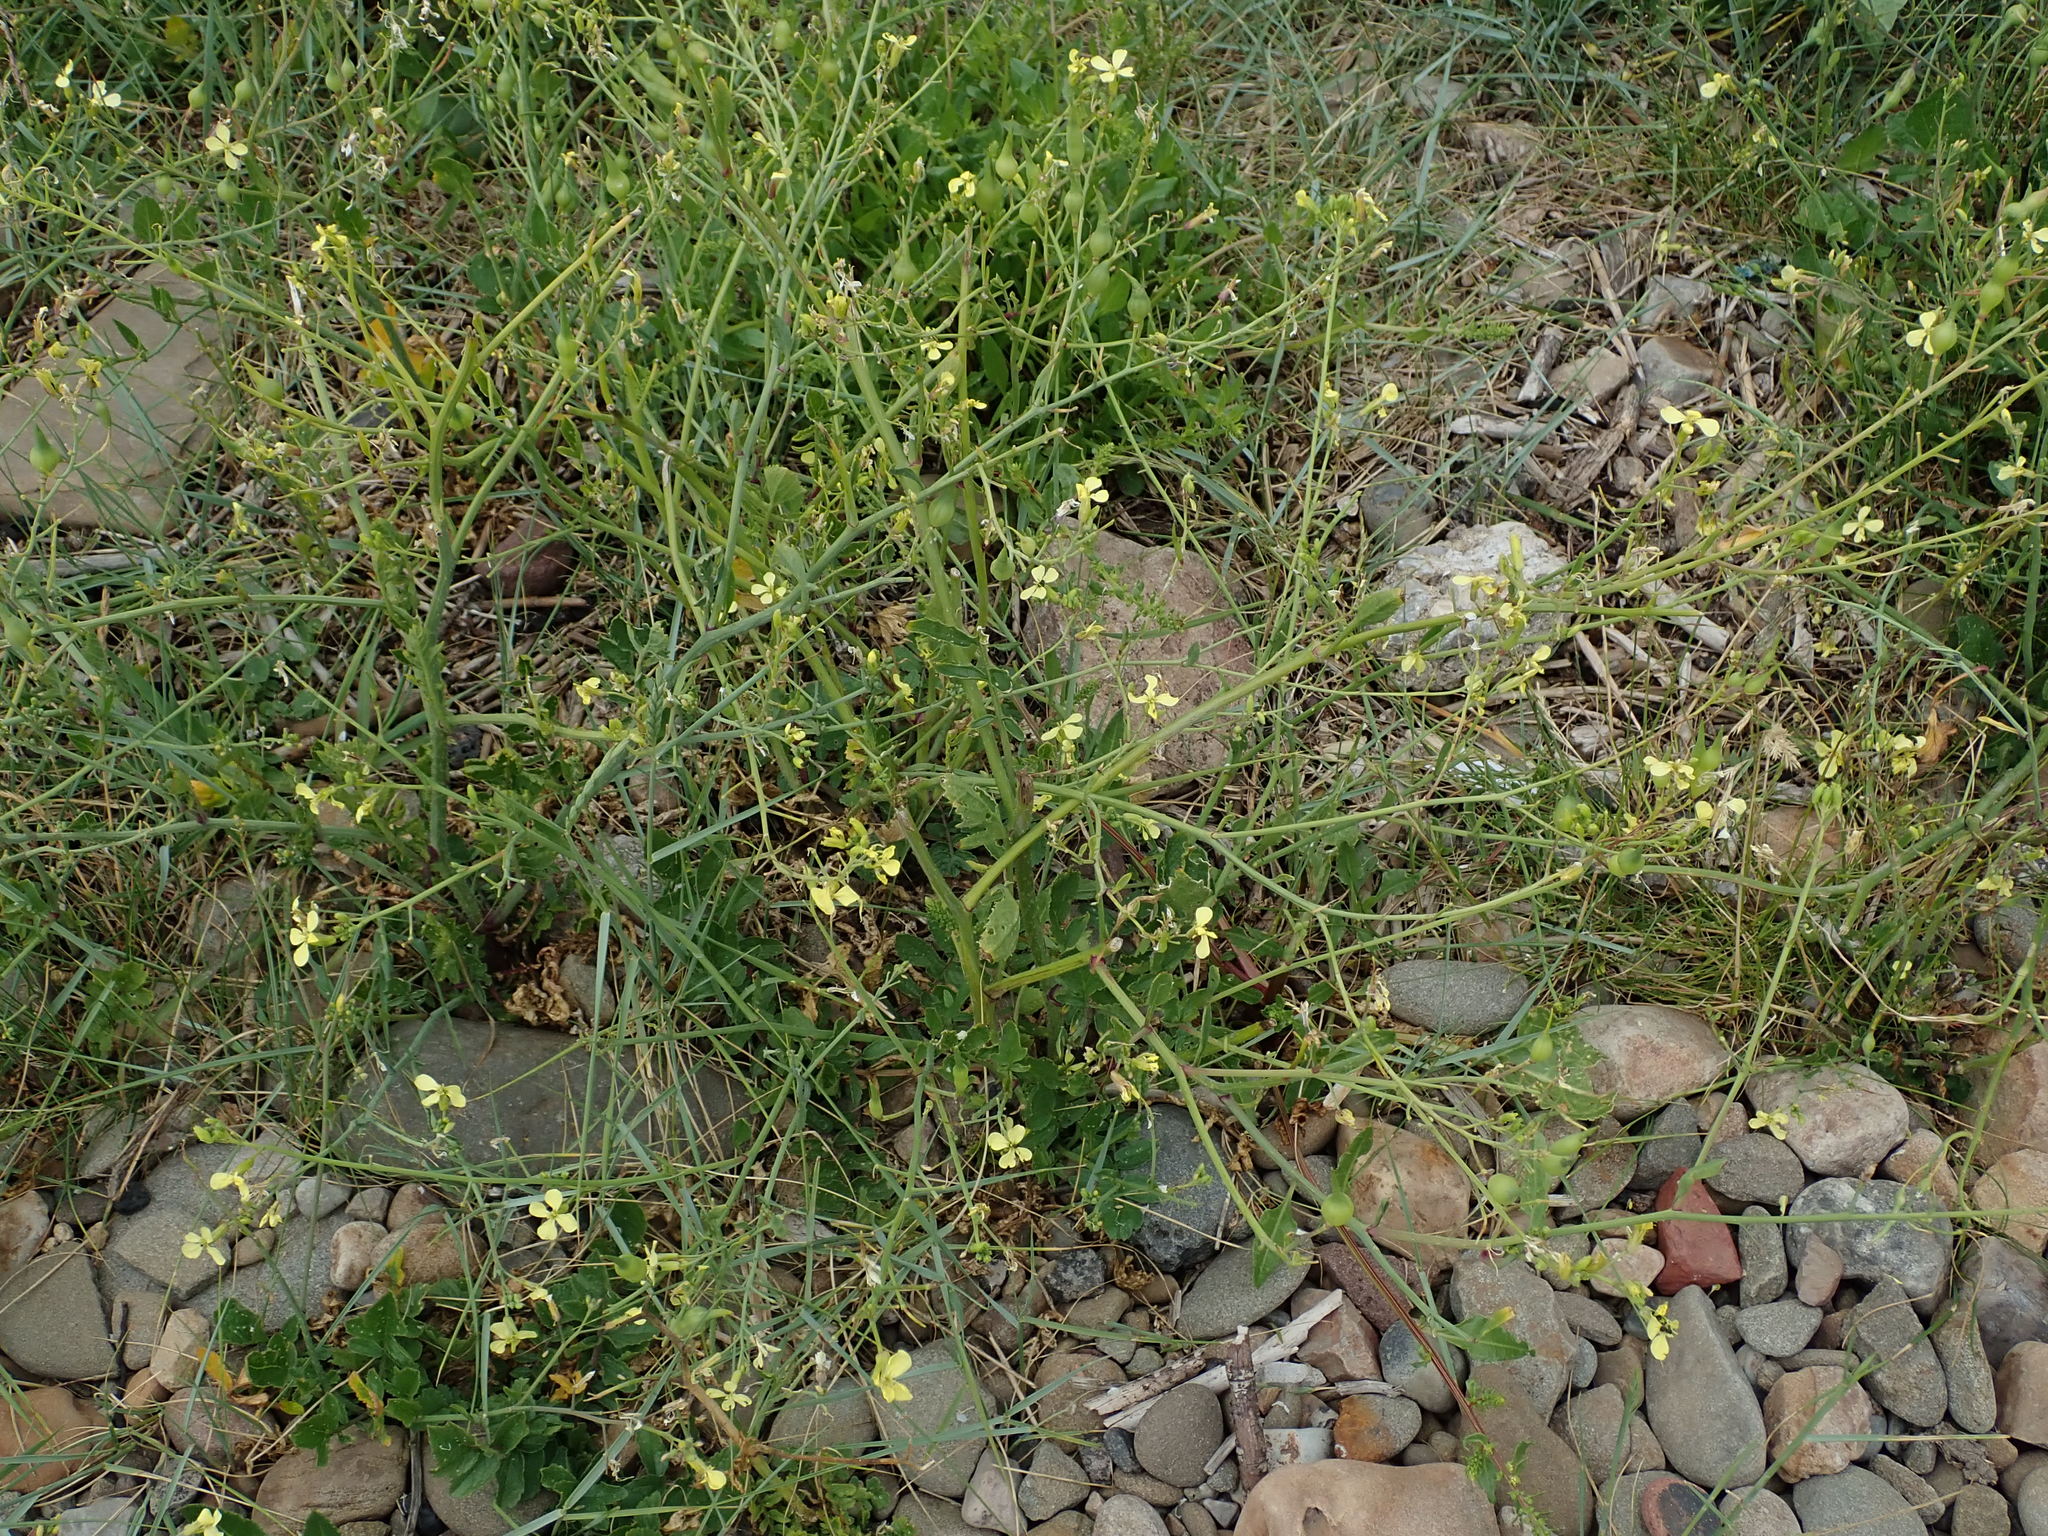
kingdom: Plantae
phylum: Tracheophyta
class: Magnoliopsida
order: Brassicales
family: Brassicaceae
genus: Raphanus
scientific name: Raphanus raphanistrum
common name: Wild radish
